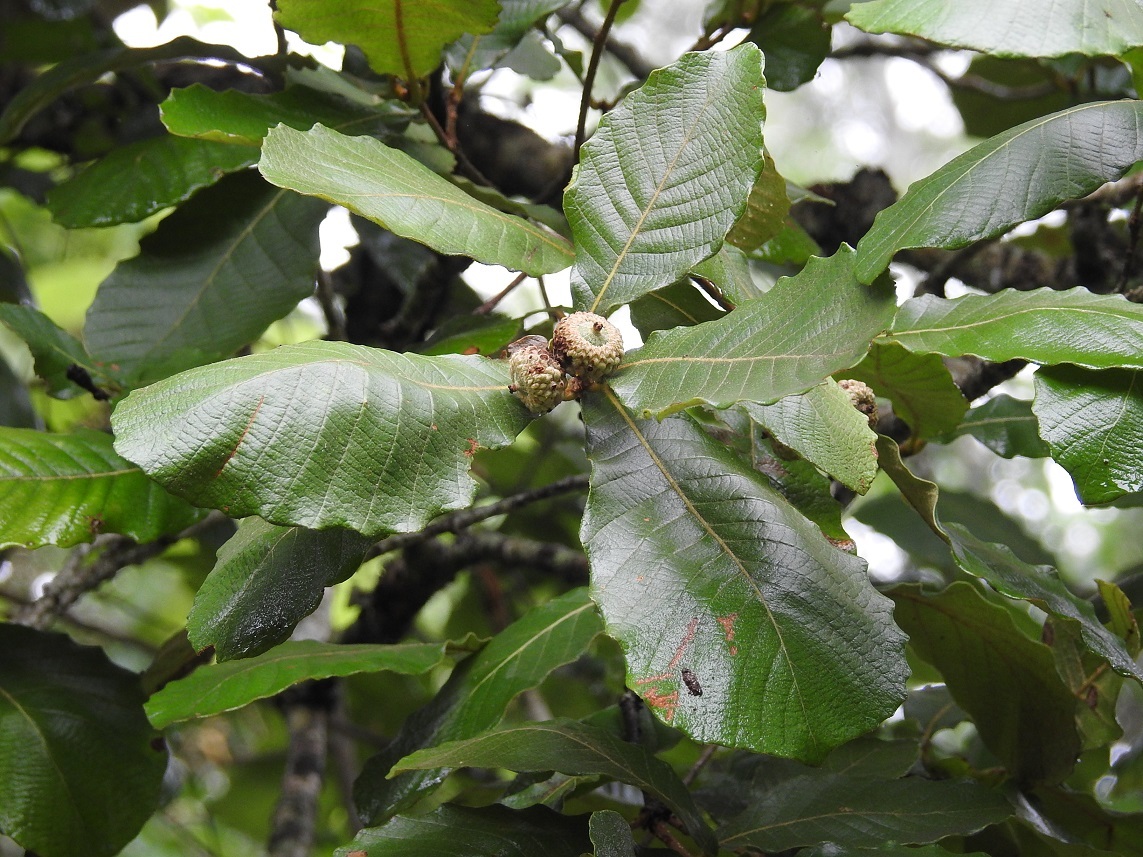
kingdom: Plantae
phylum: Tracheophyta
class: Magnoliopsida
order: Fagales
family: Fagaceae
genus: Quercus
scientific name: Quercus purulhana
